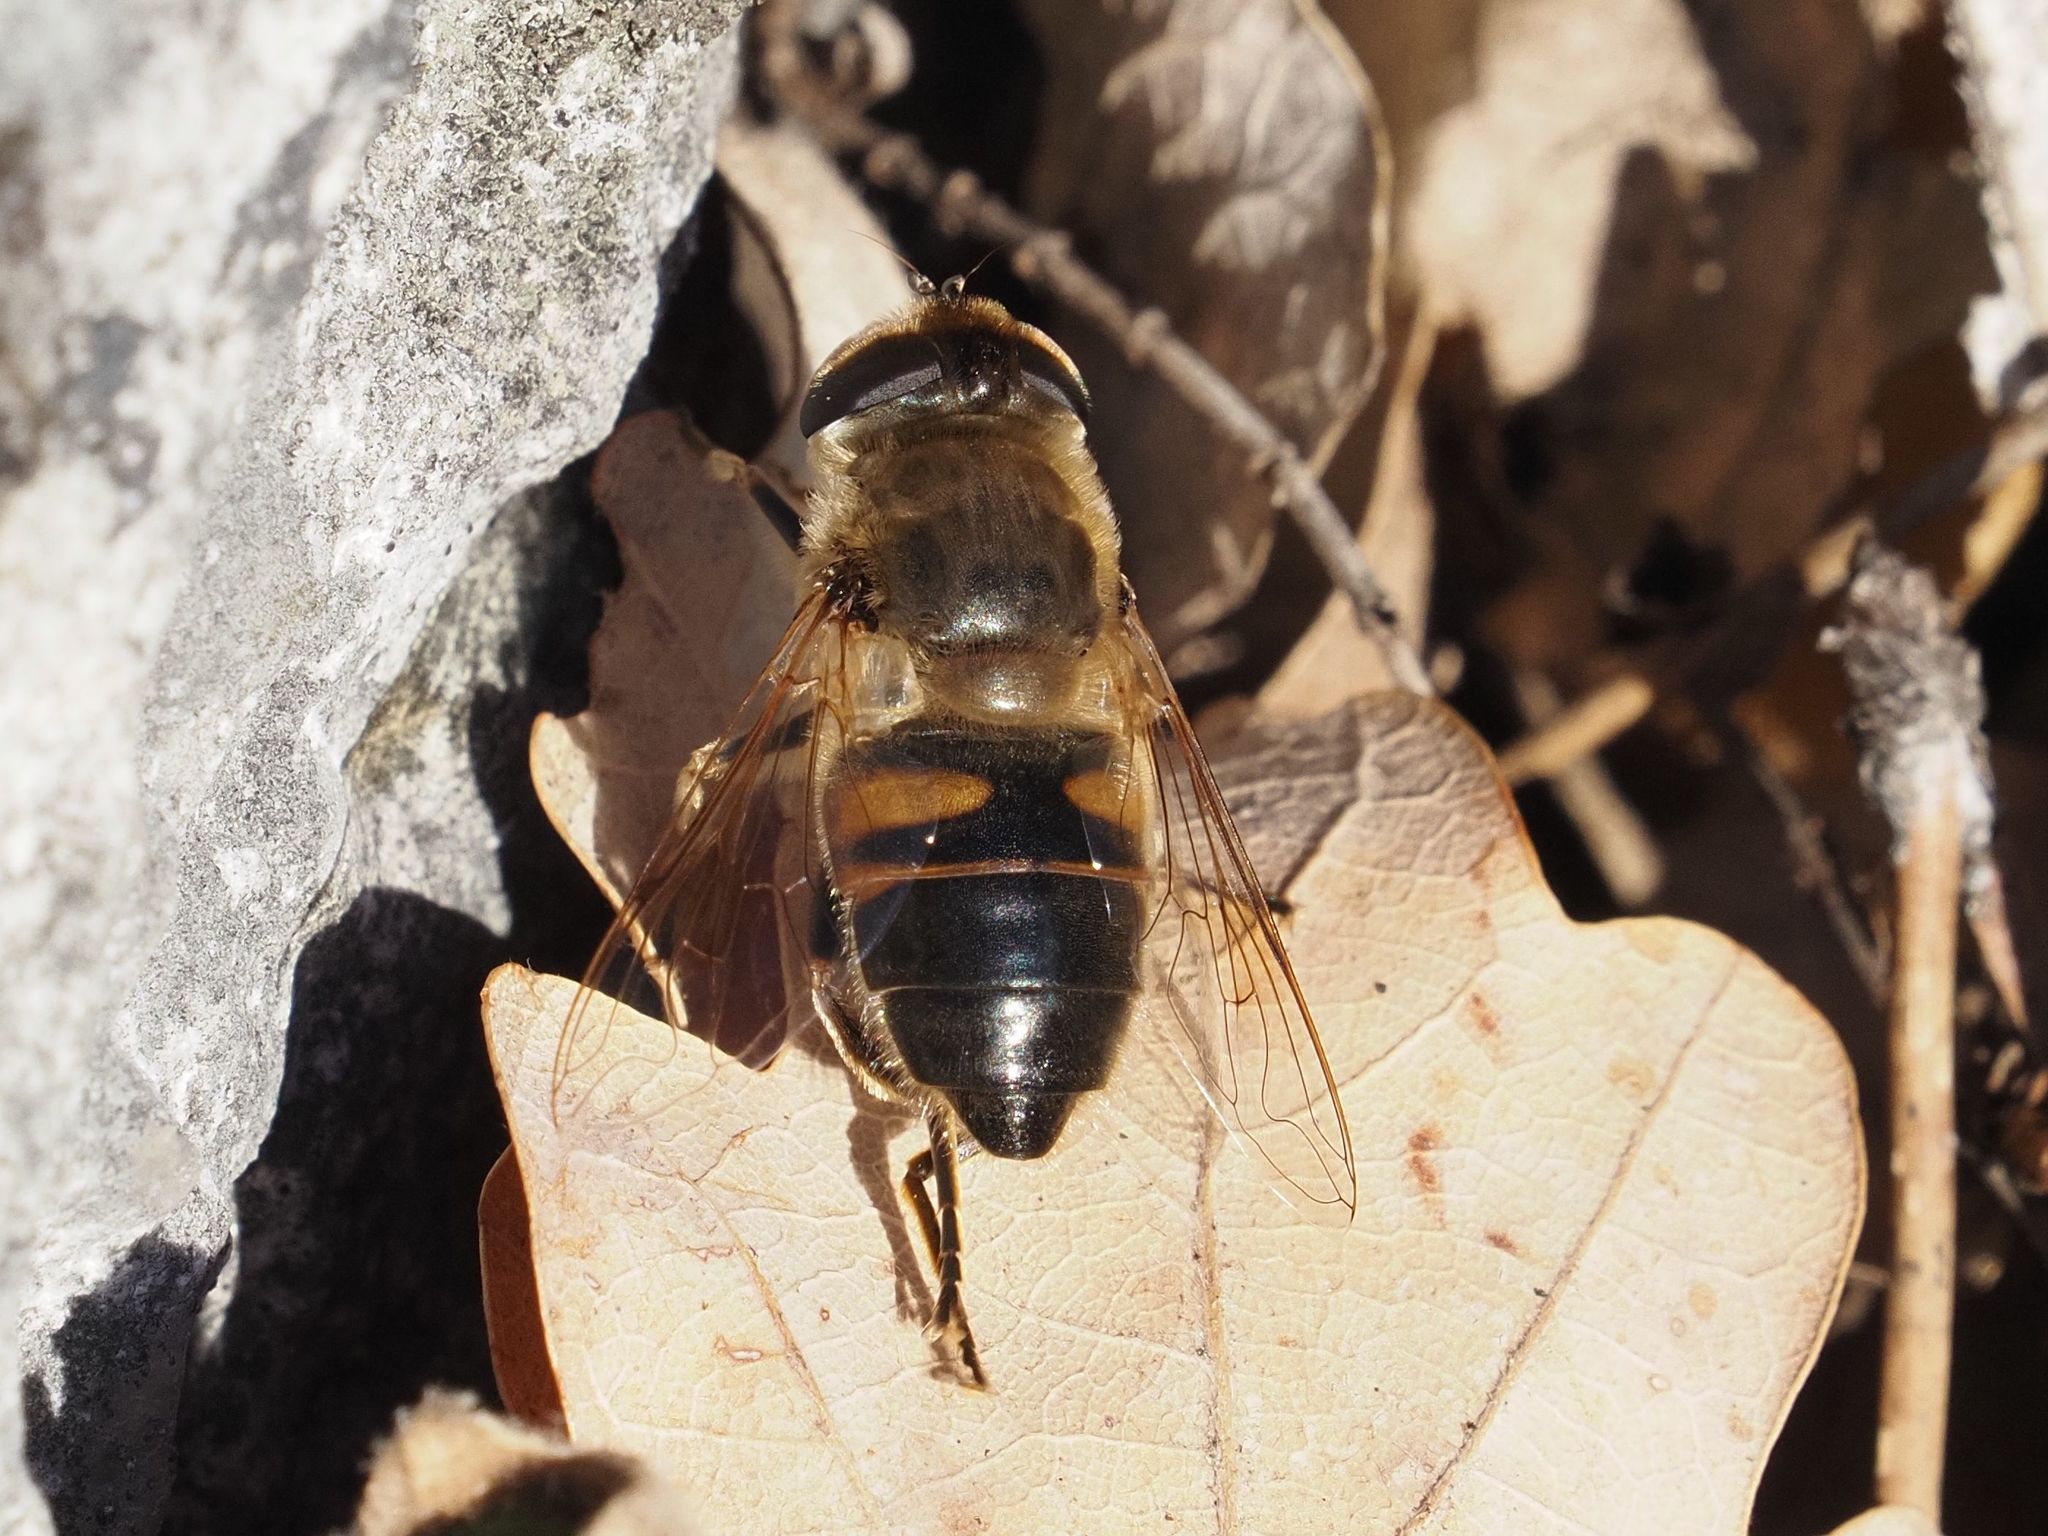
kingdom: Animalia
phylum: Arthropoda
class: Insecta
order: Diptera
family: Syrphidae
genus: Eristalis
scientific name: Eristalis tenax
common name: Drone fly
